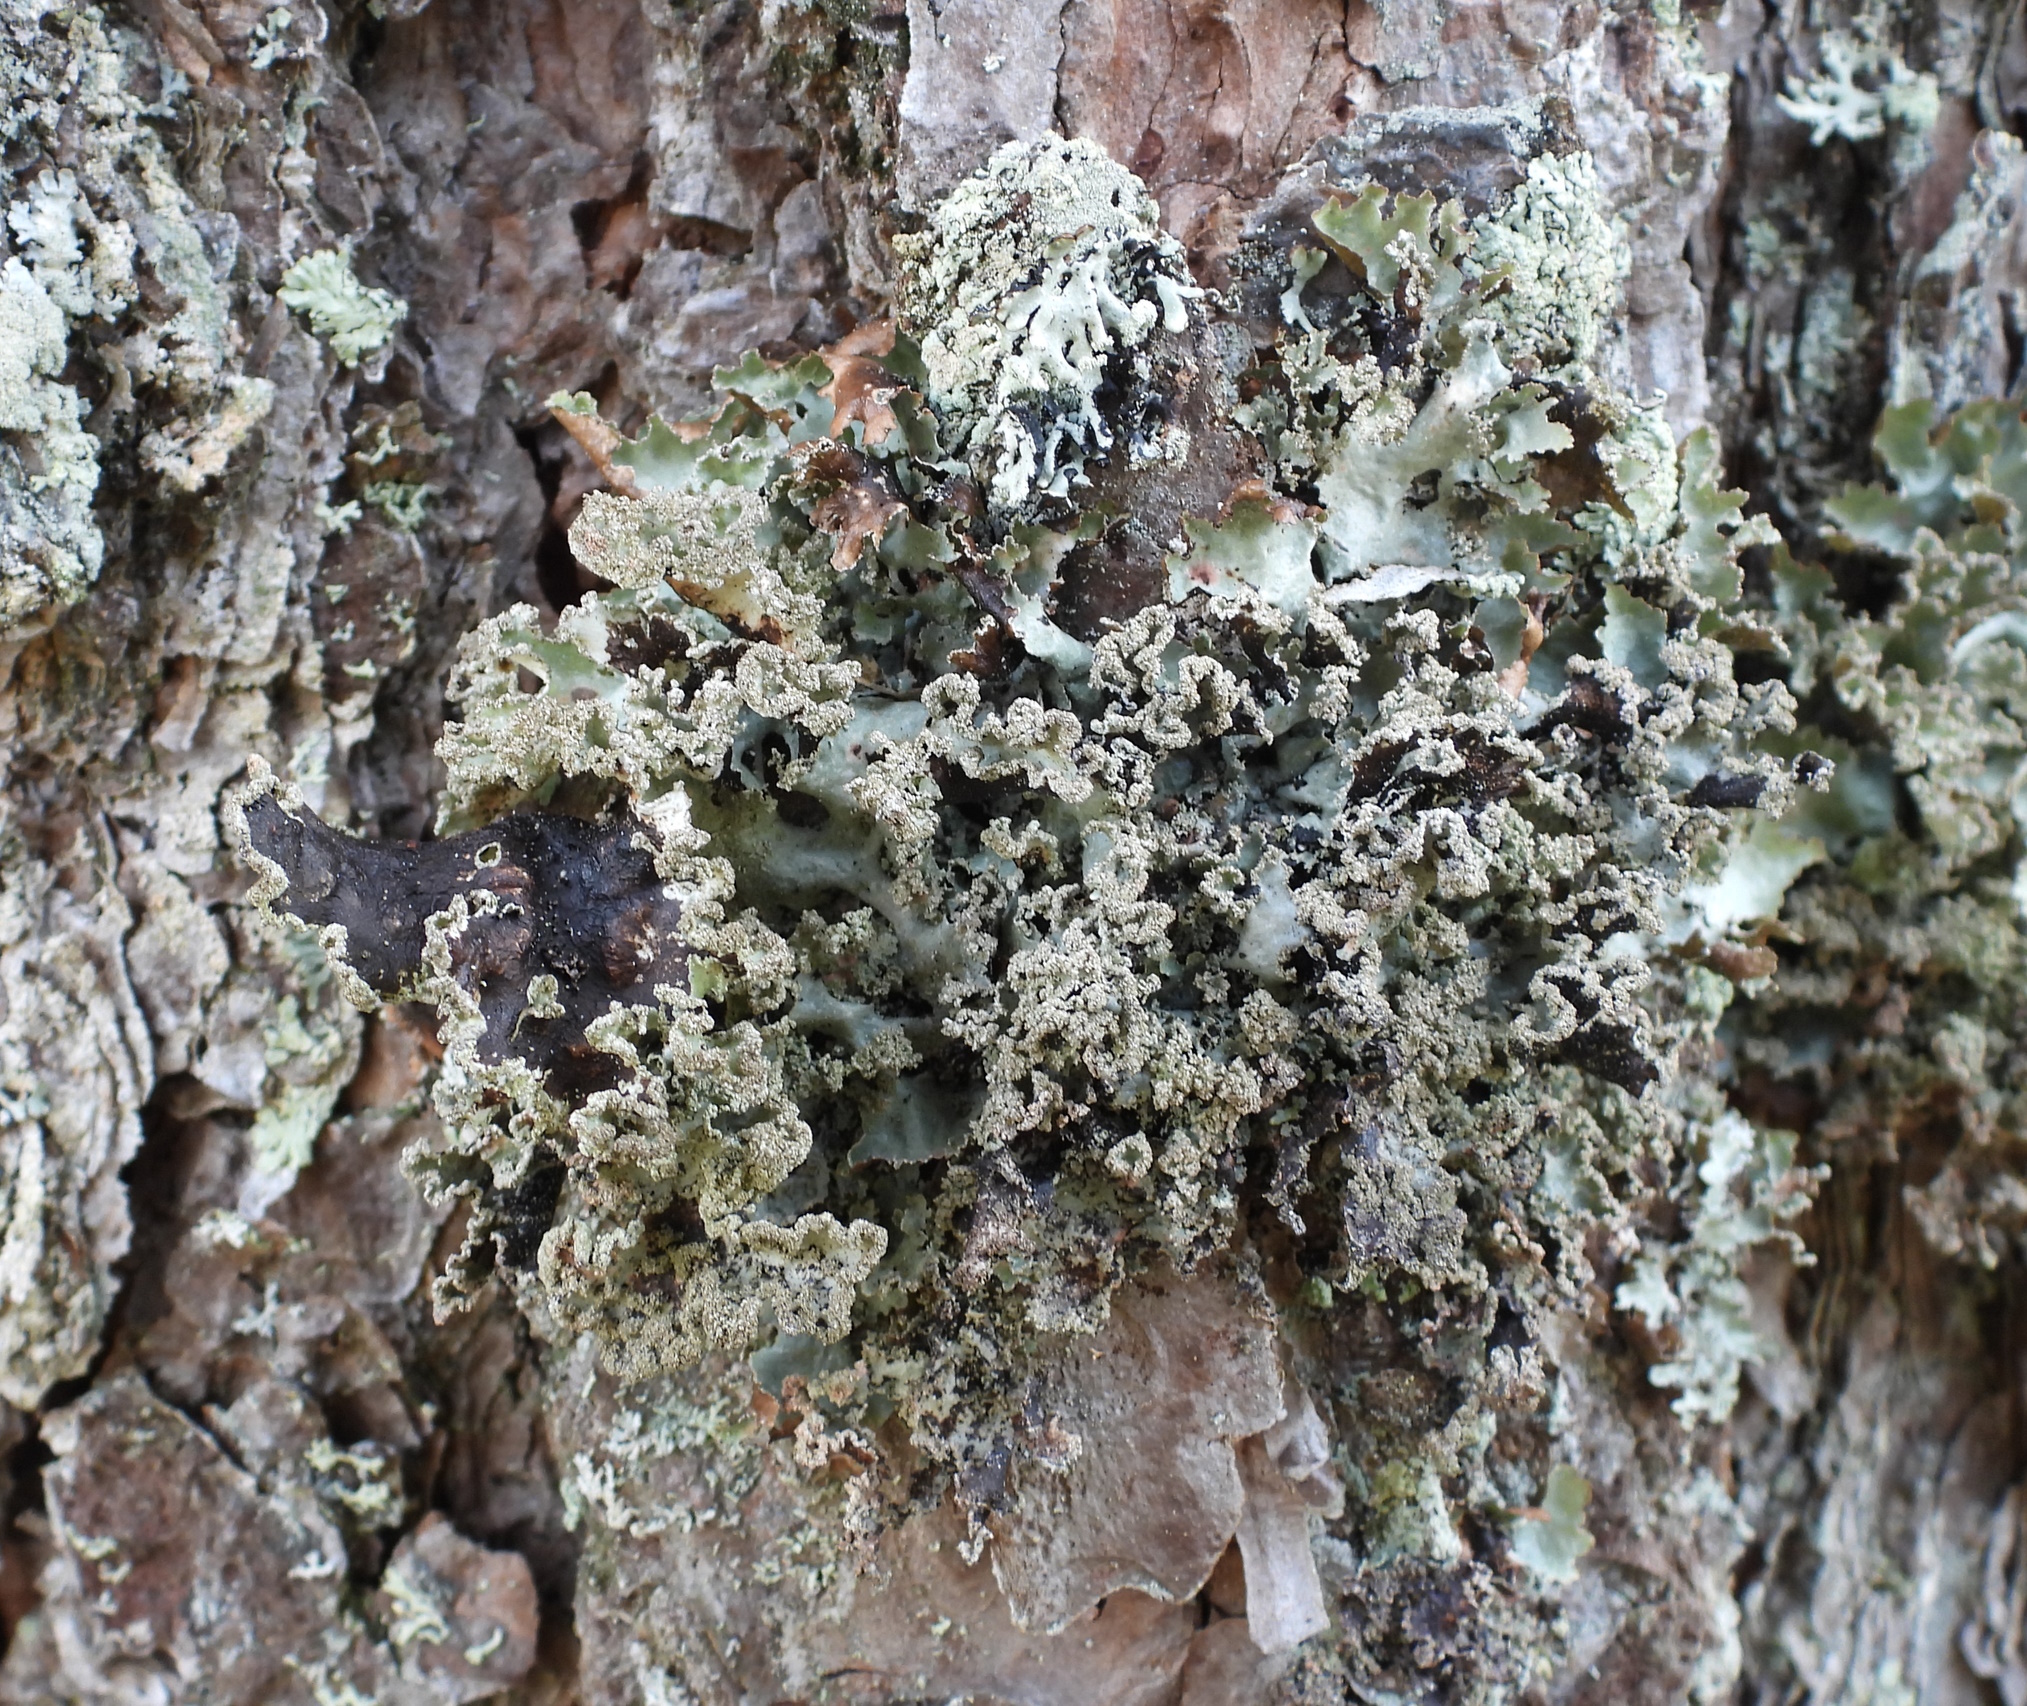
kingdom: Fungi
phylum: Ascomycota
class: Lecanoromycetes
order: Lecanorales
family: Parmeliaceae
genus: Platismatia
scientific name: Platismatia glauca
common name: Varied rag lichen
